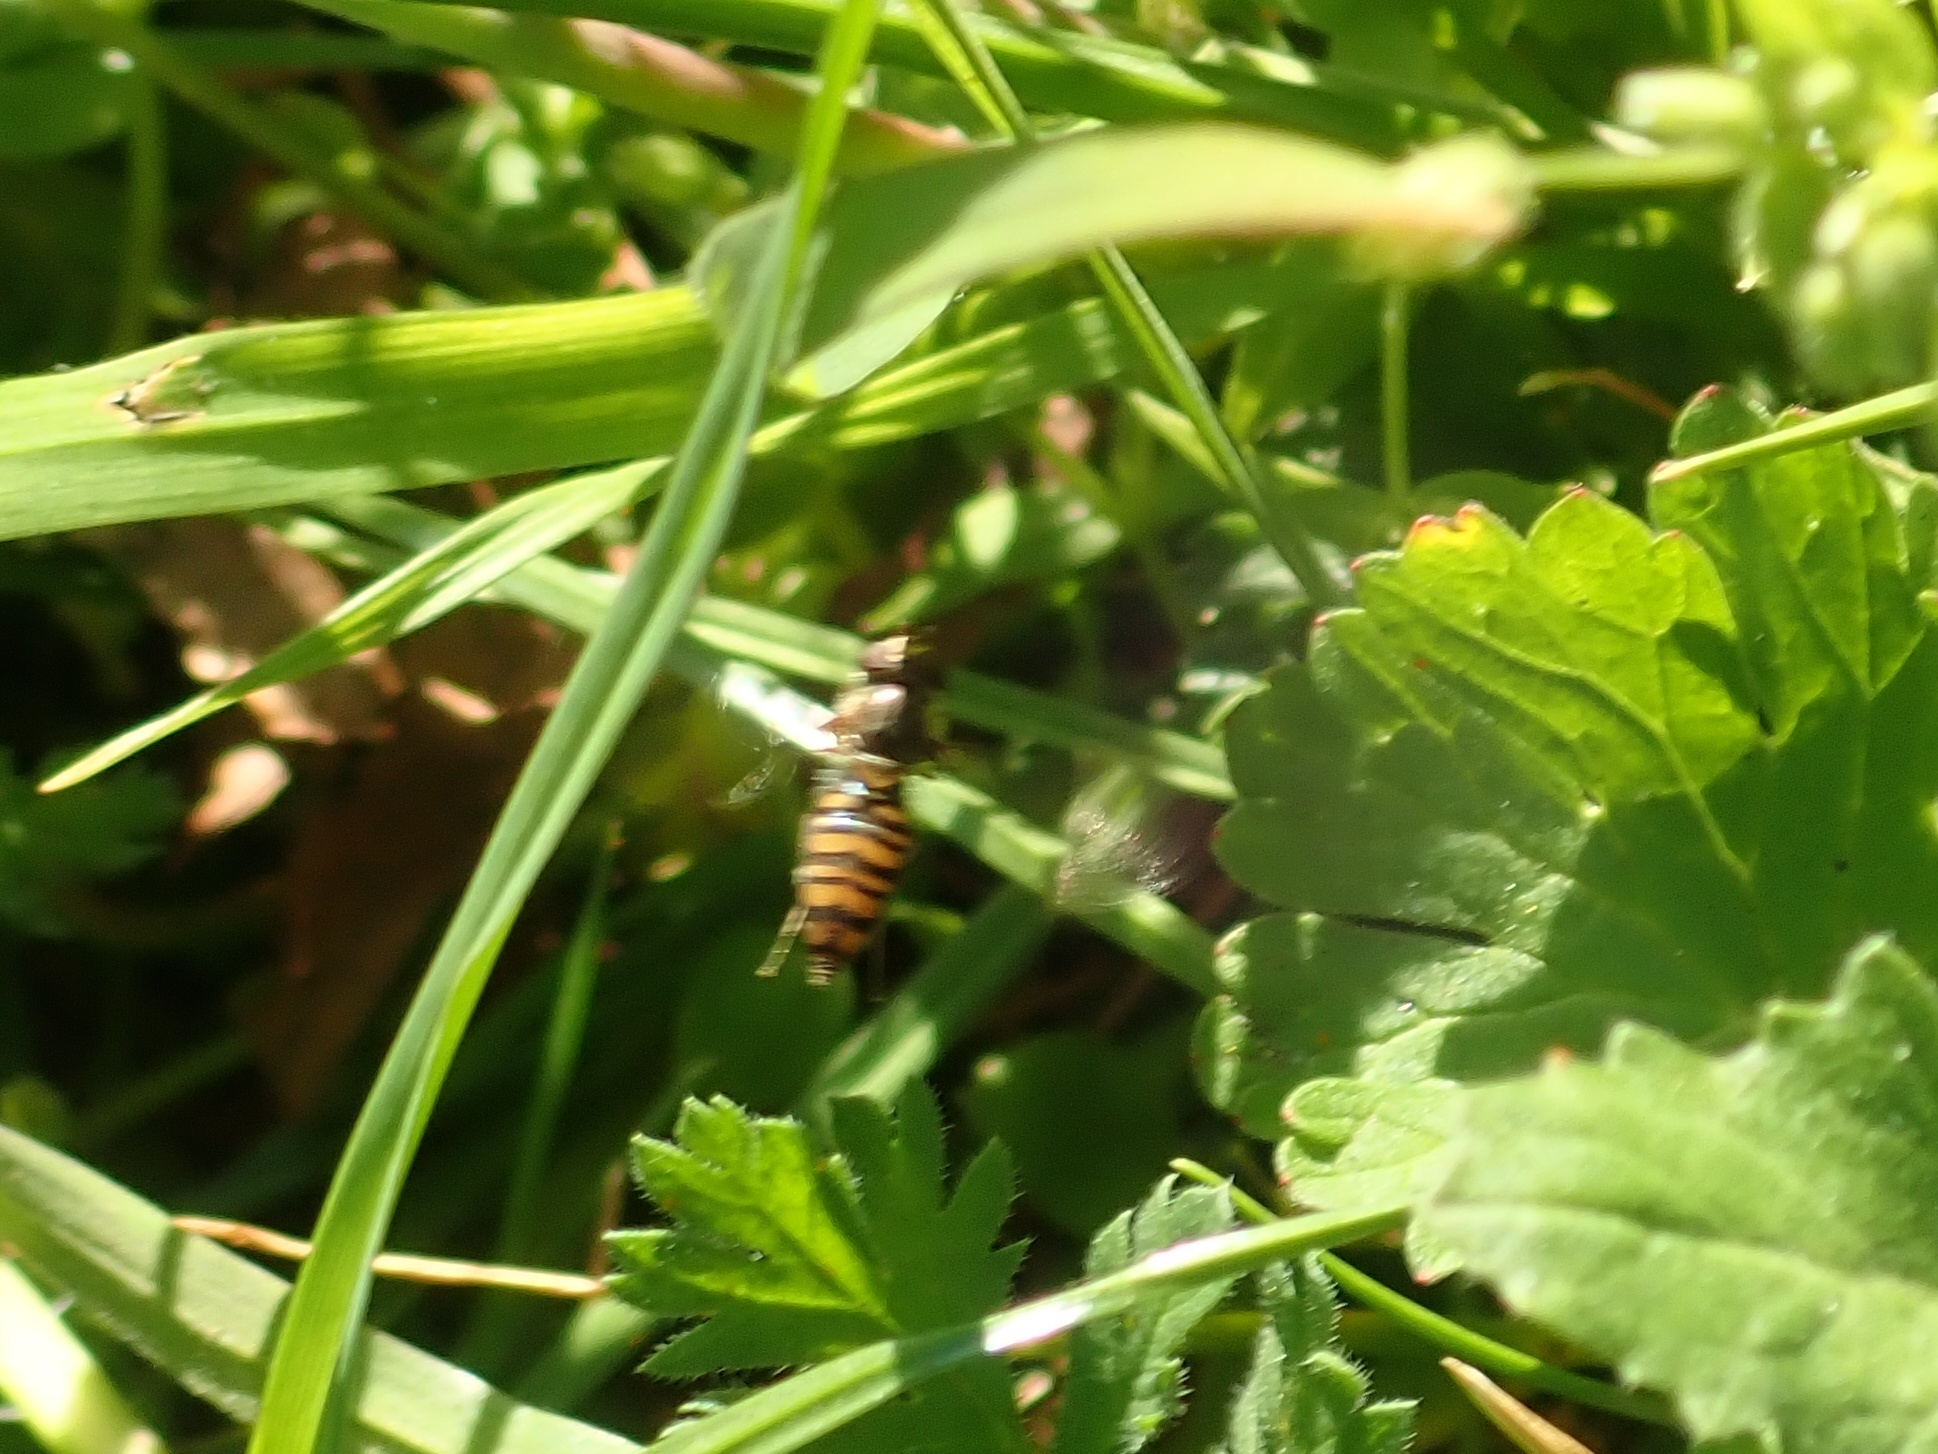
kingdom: Animalia
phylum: Arthropoda
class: Insecta
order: Diptera
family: Syrphidae
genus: Episyrphus
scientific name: Episyrphus balteatus
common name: Marmalade hoverfly
